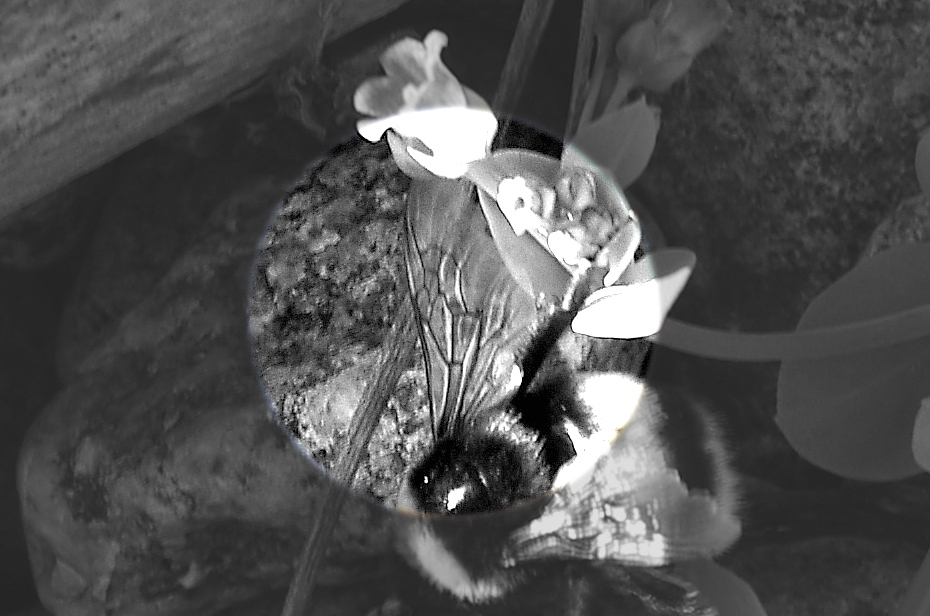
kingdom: Animalia
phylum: Arthropoda
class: Insecta
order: Hymenoptera
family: Apidae
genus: Bombus
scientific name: Bombus
